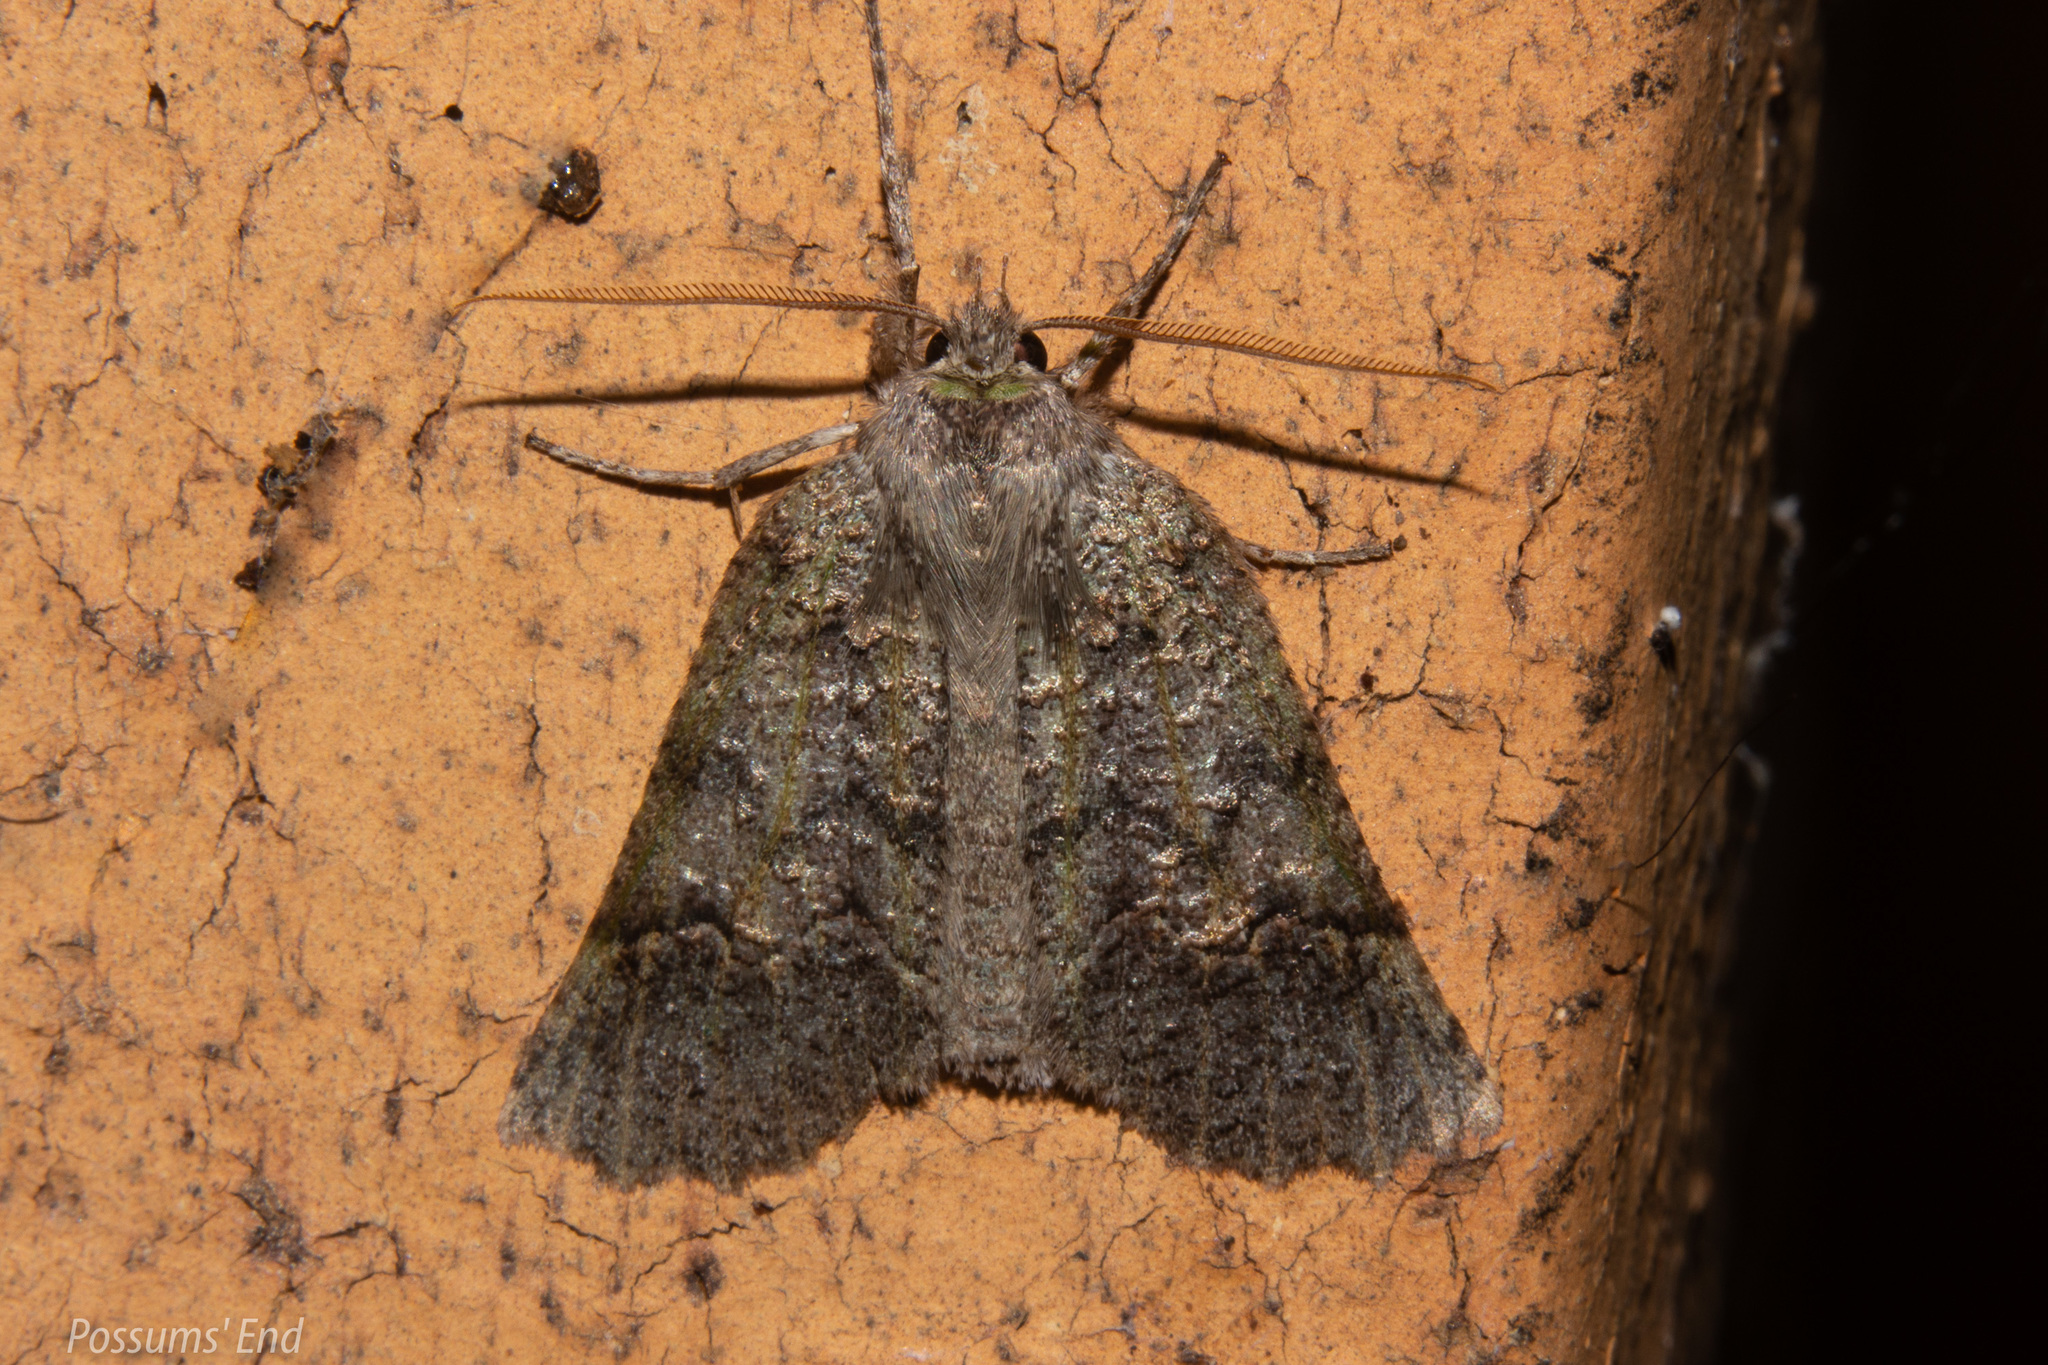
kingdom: Animalia
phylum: Arthropoda
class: Insecta
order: Lepidoptera
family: Geometridae
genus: Declana
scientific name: Declana floccosa
